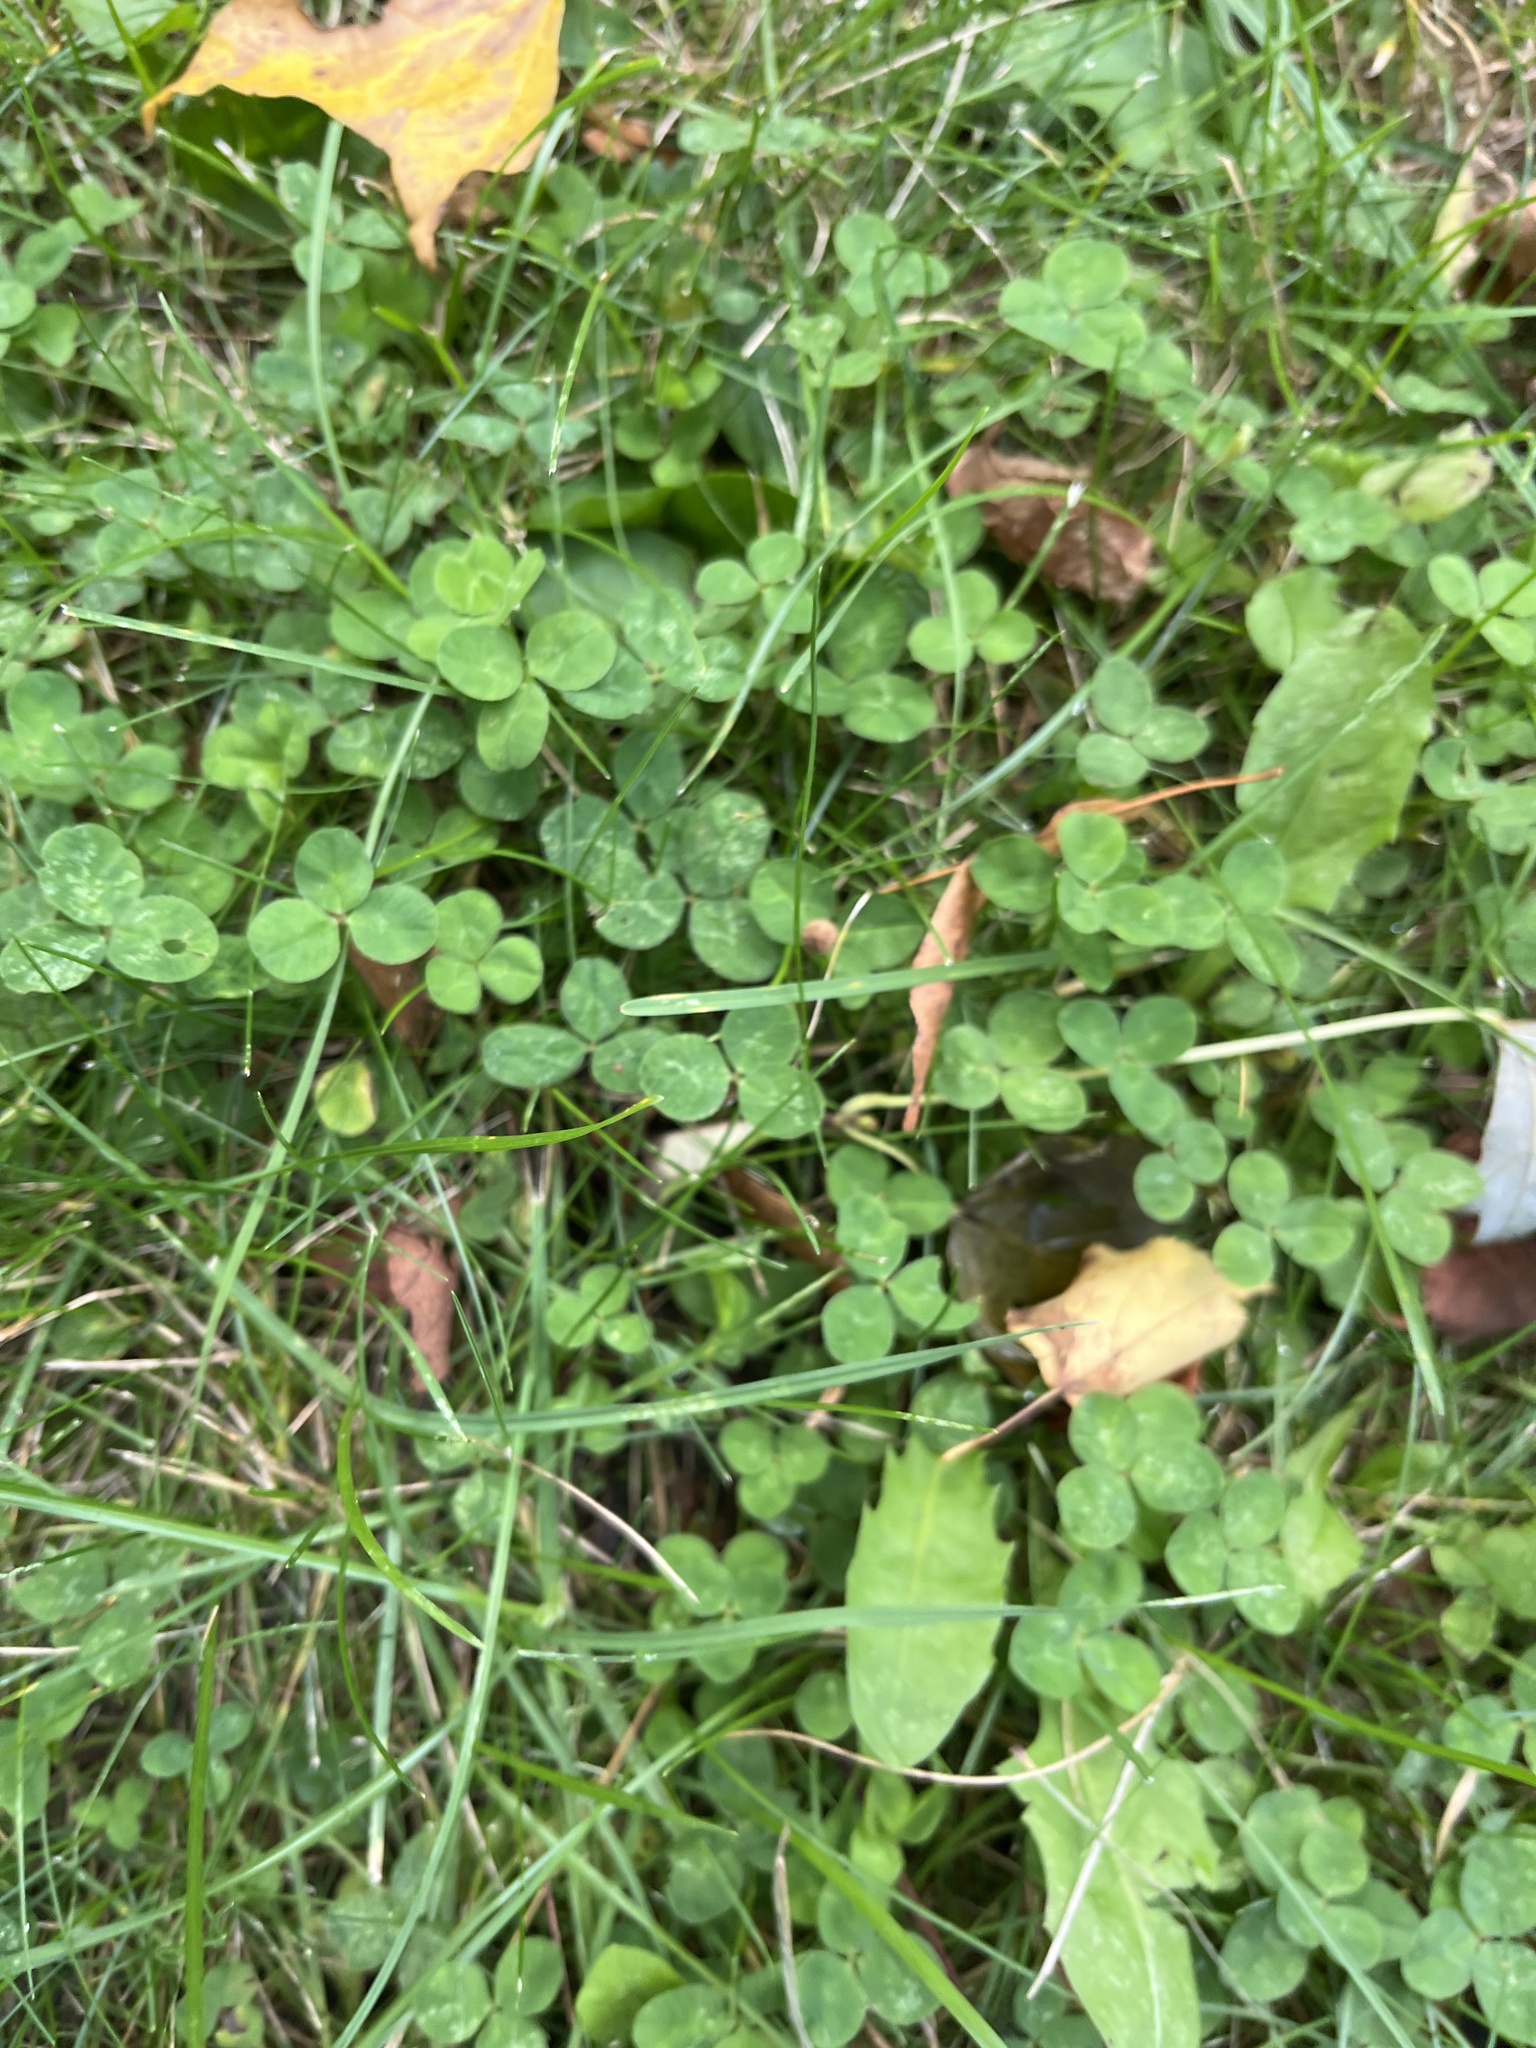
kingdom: Plantae
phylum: Tracheophyta
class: Magnoliopsida
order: Fabales
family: Fabaceae
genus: Trifolium
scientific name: Trifolium repens
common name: White clover
